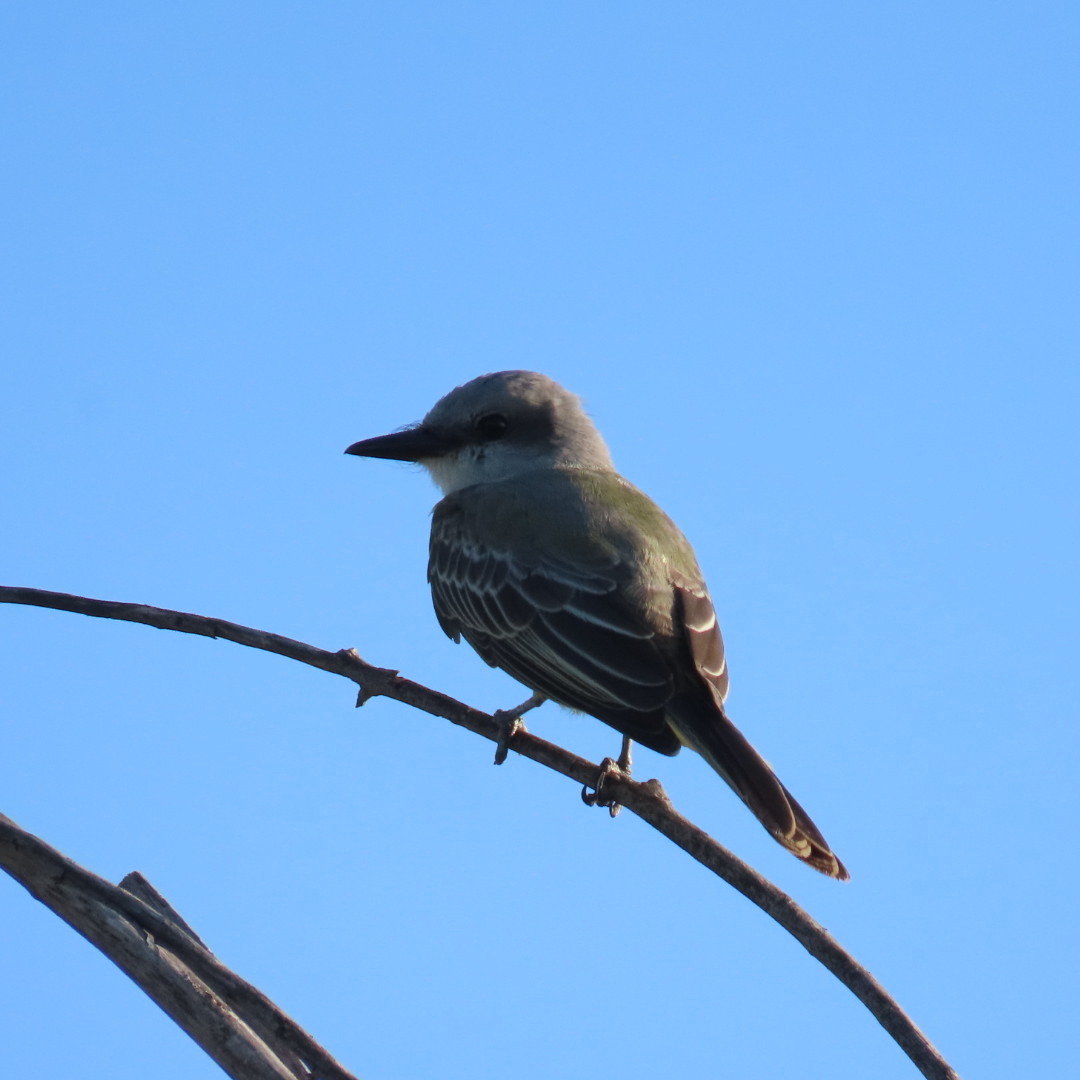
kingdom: Animalia
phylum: Chordata
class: Aves
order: Passeriformes
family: Tyrannidae
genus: Tyrannus
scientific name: Tyrannus
